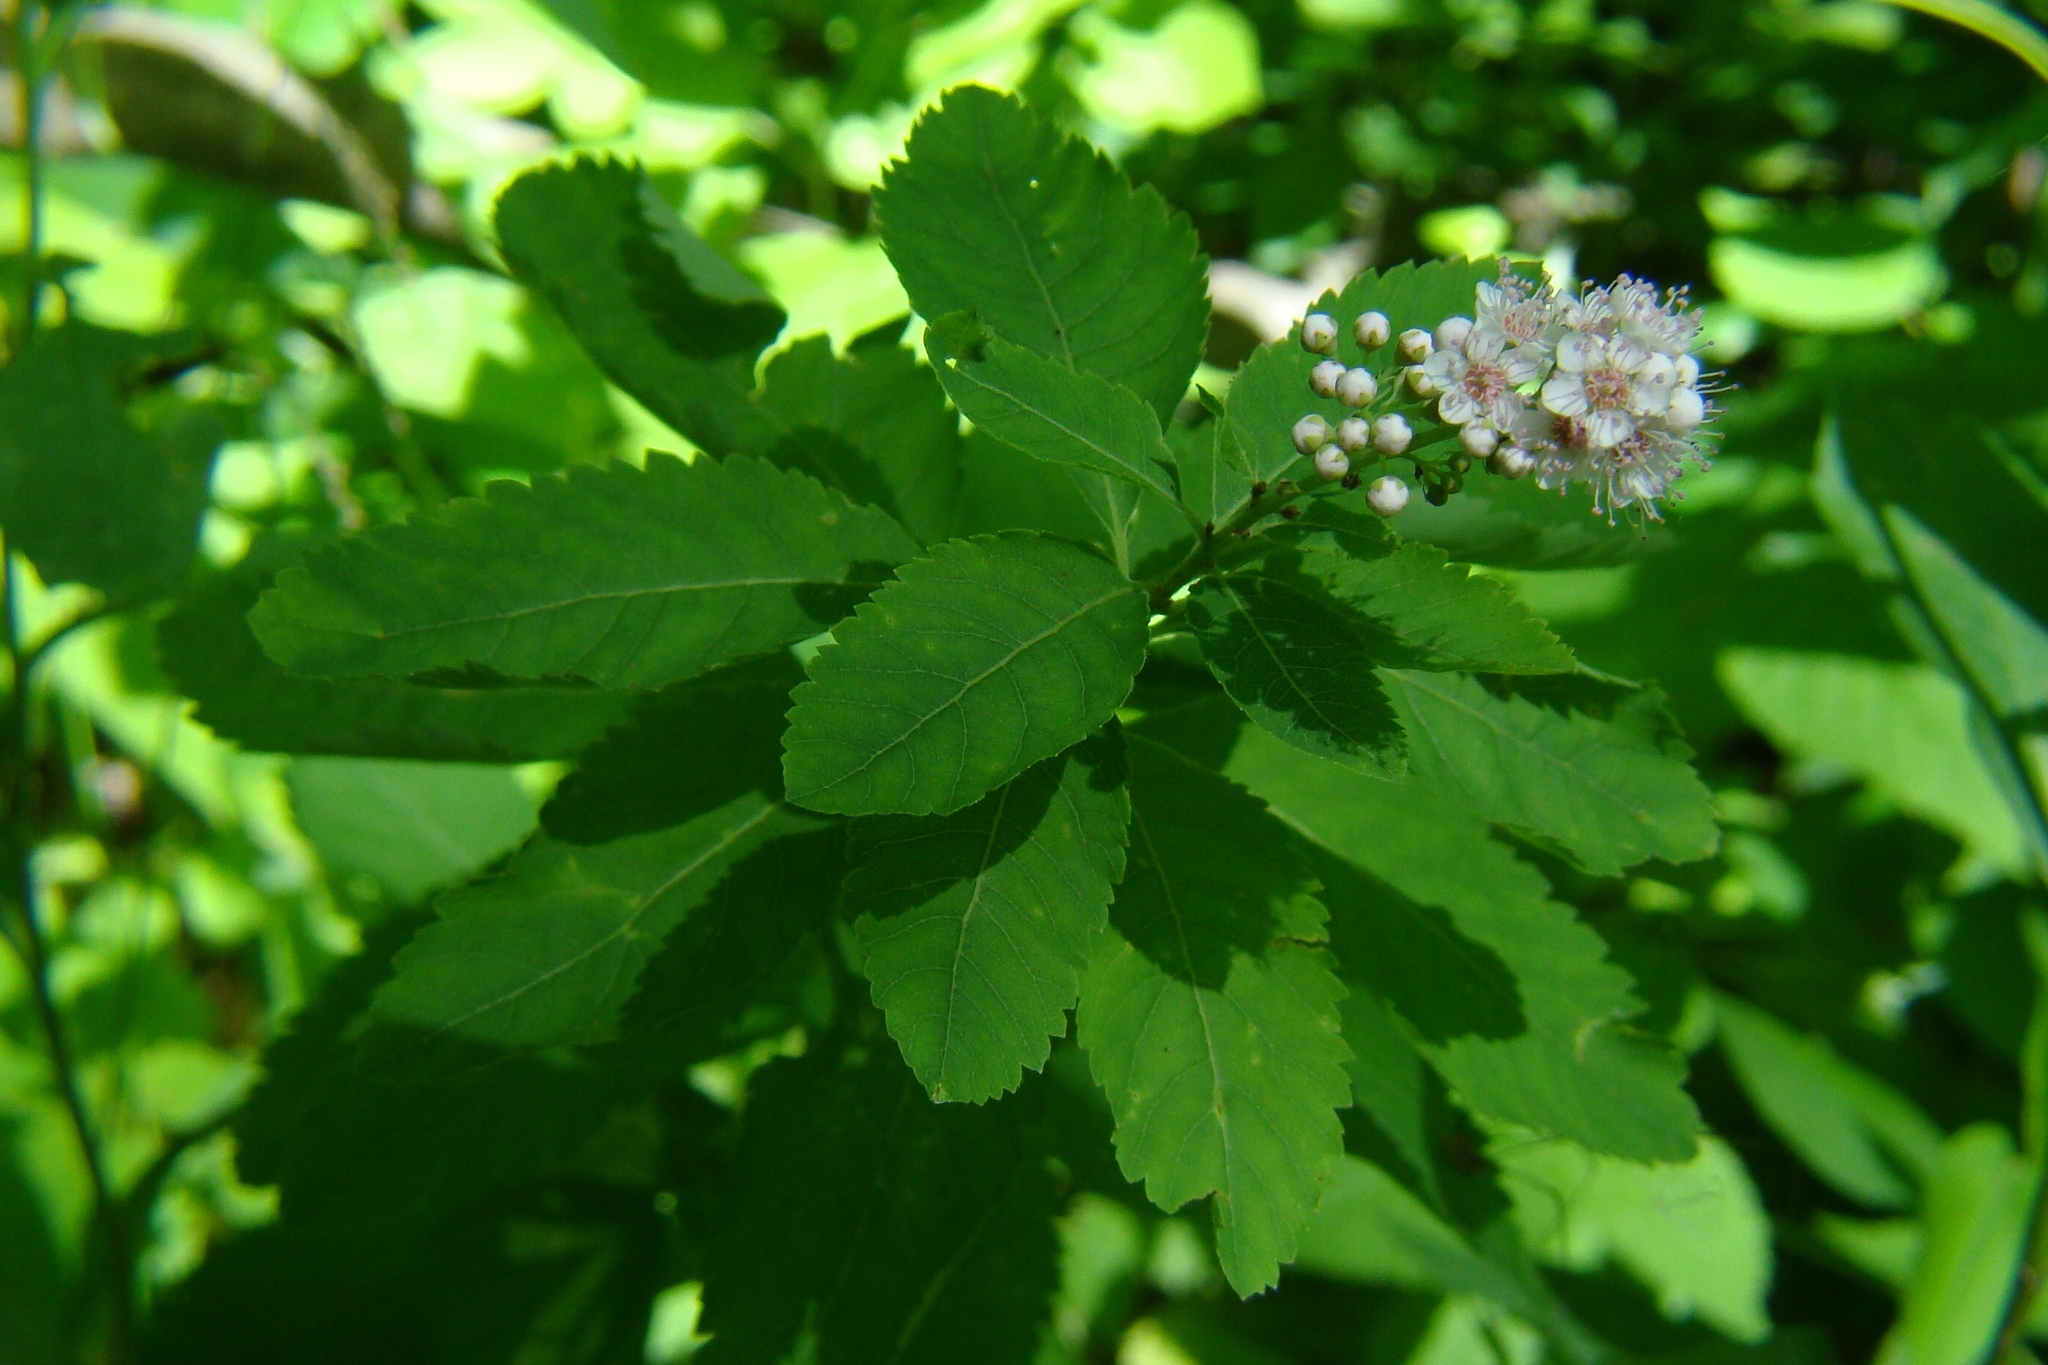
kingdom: Plantae
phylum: Tracheophyta
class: Magnoliopsida
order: Rosales
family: Rosaceae
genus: Spiraea
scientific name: Spiraea alba
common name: Pale bridewort
